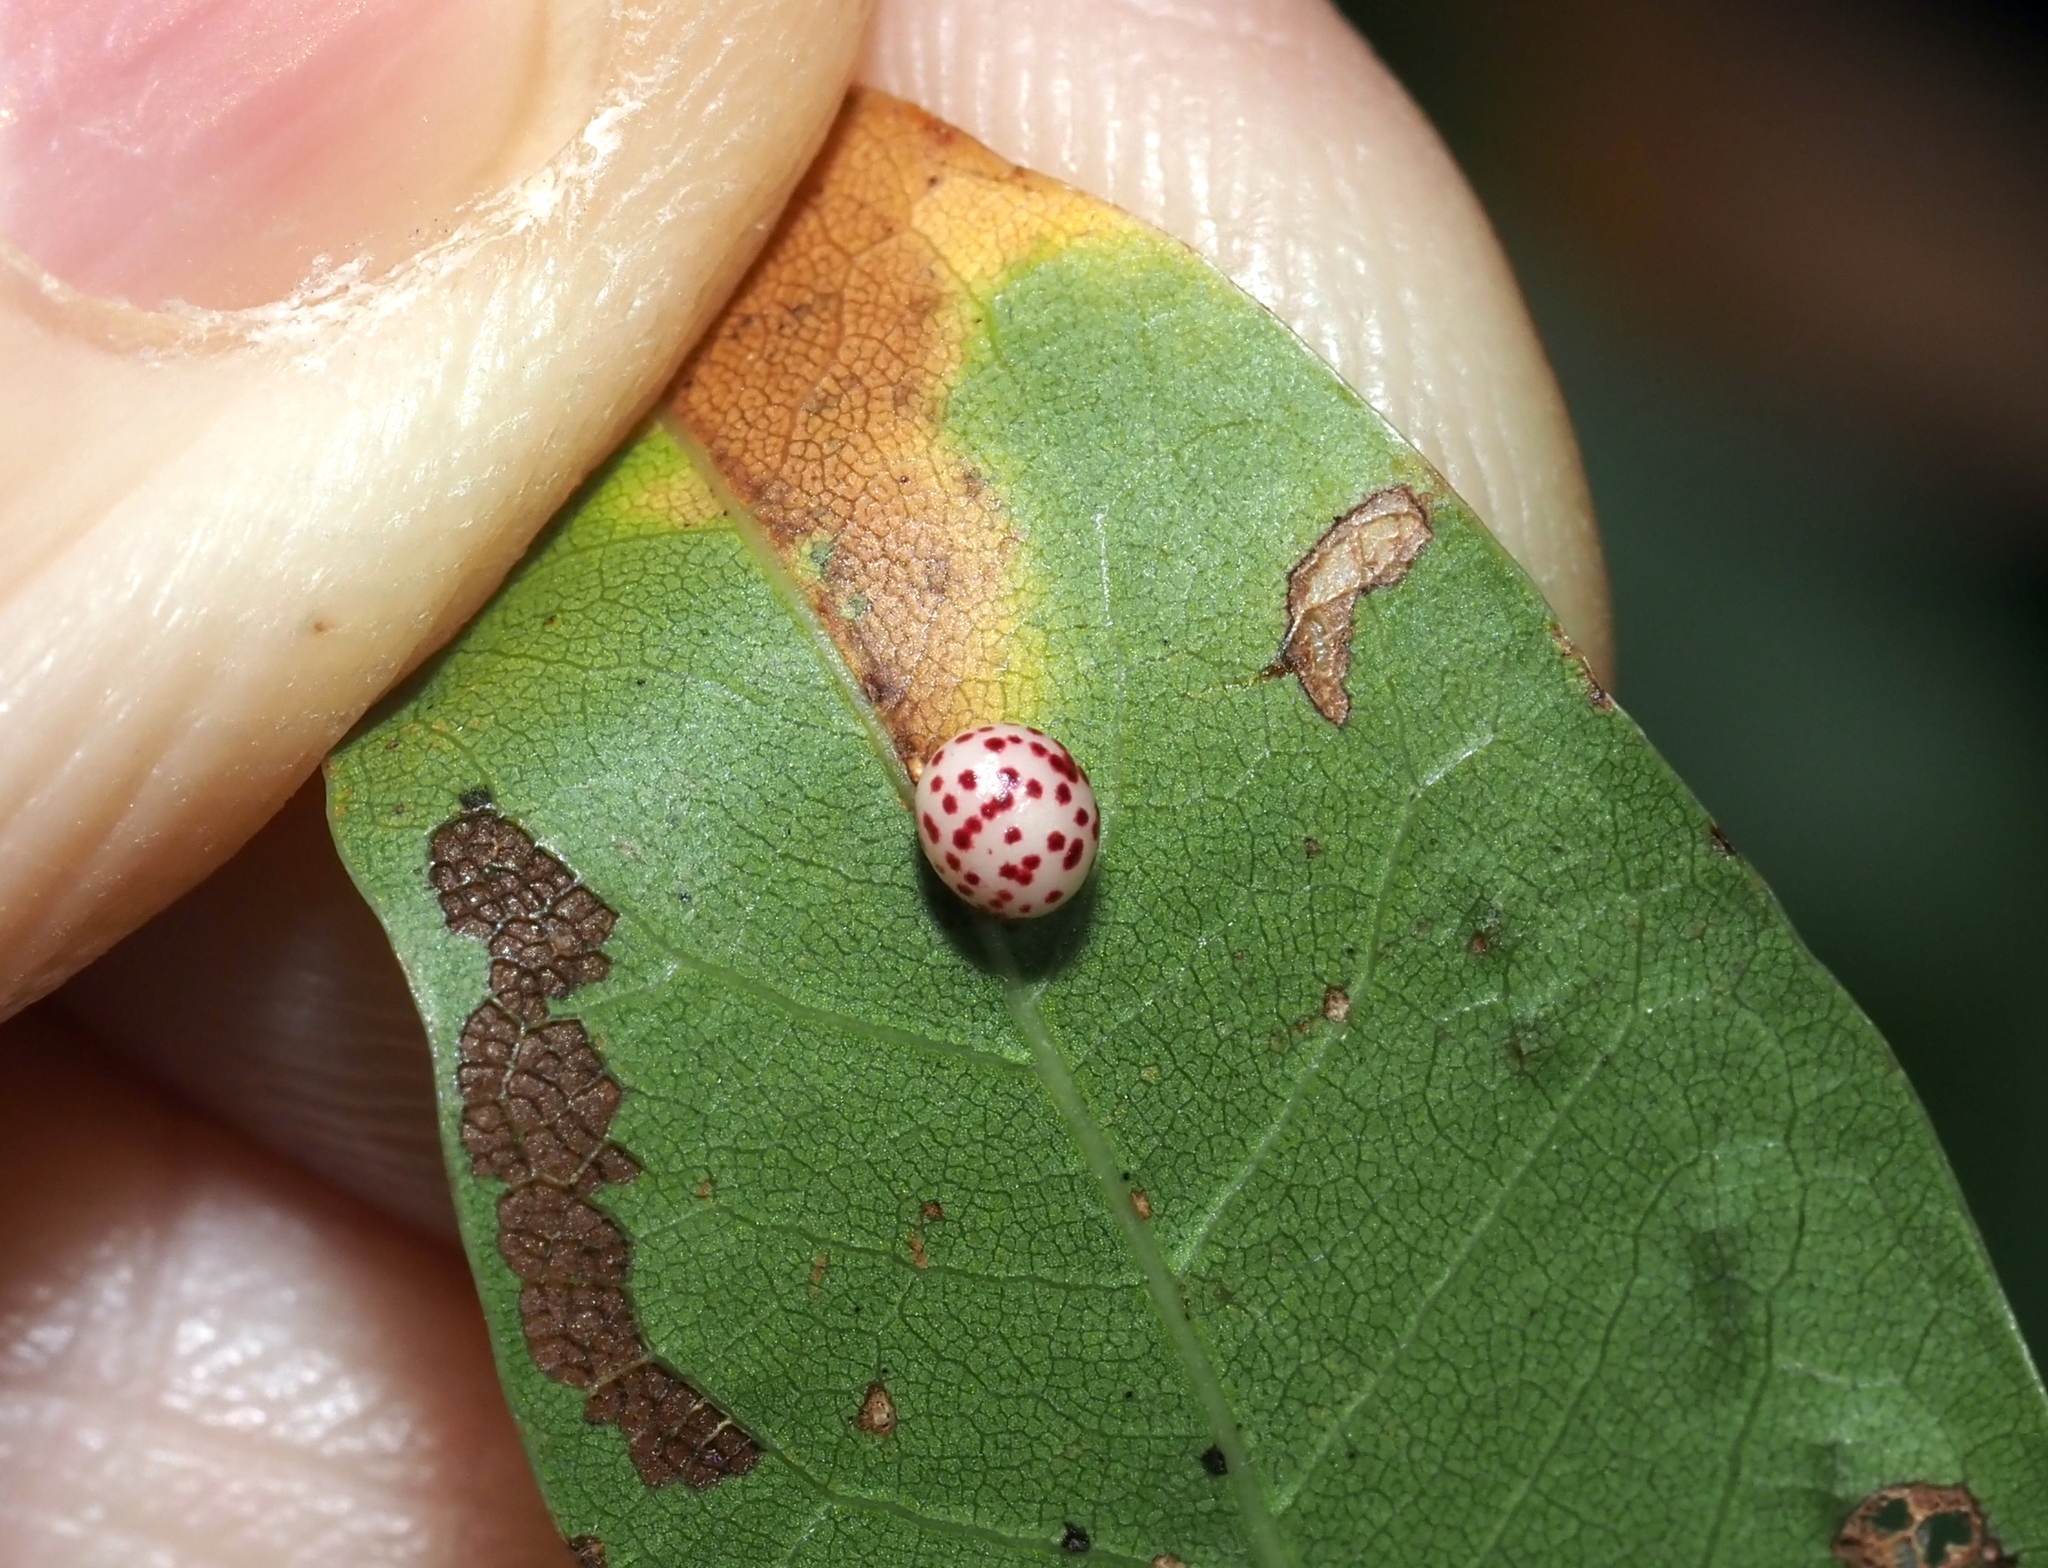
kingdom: Animalia
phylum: Arthropoda
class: Insecta
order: Hymenoptera
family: Cynipidae
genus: Zopheroteras
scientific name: Zopheroteras
